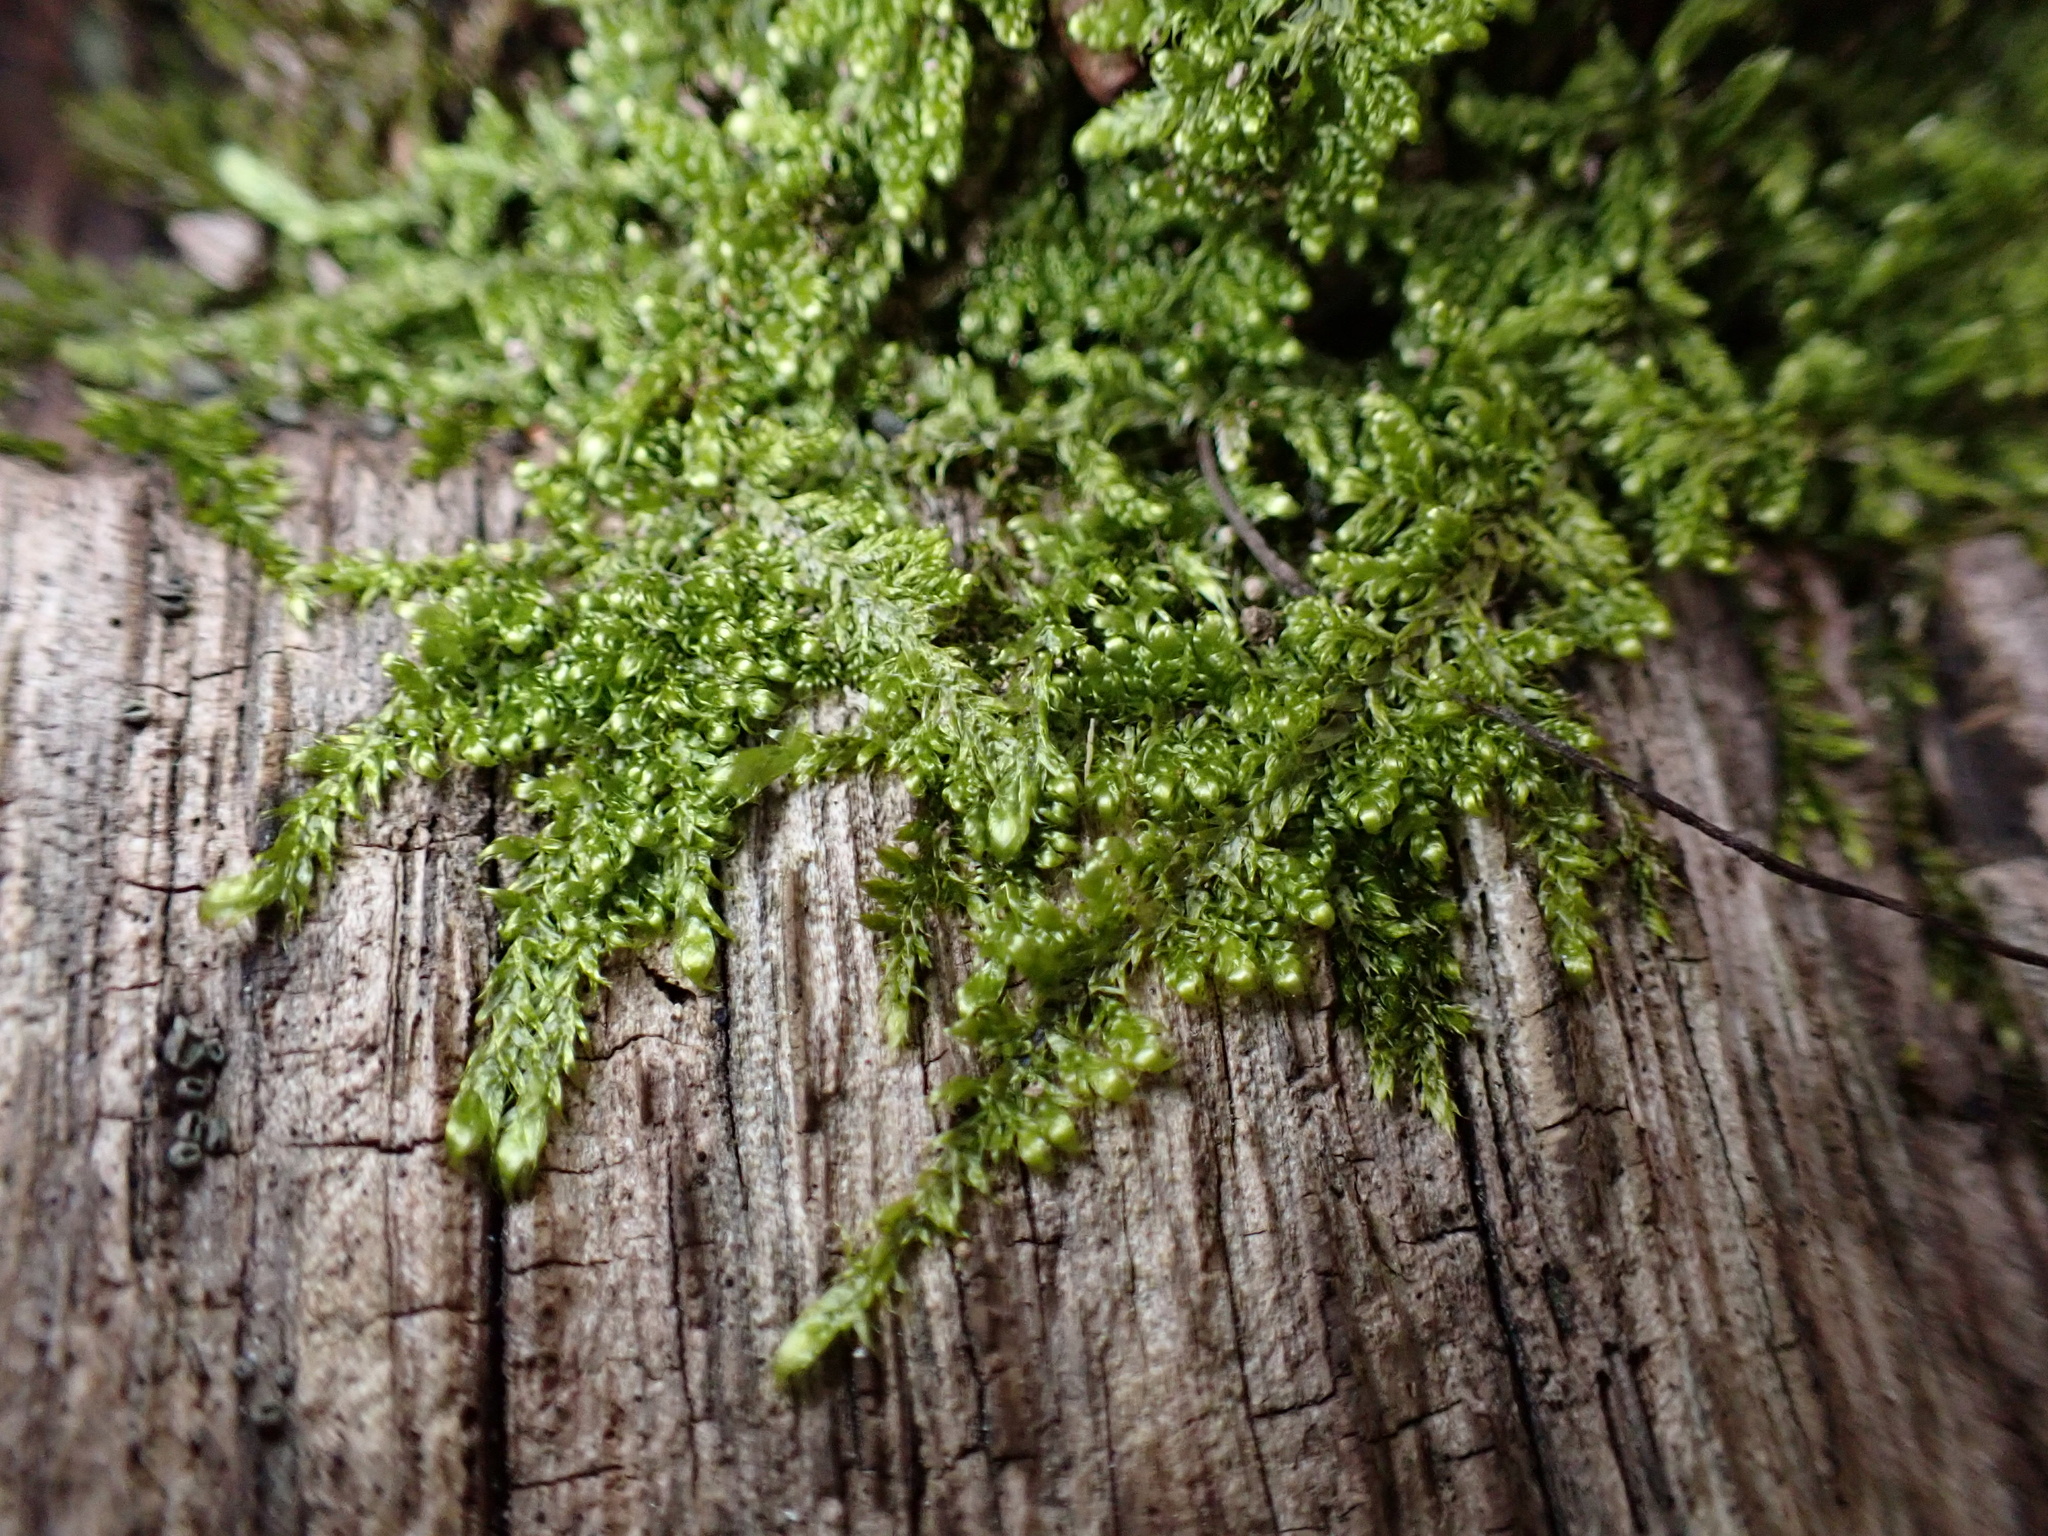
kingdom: Plantae
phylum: Bryophyta
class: Bryopsida
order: Hypnales
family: Callicladiaceae
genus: Callicladium
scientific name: Callicladium imponens
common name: Brocade moss
